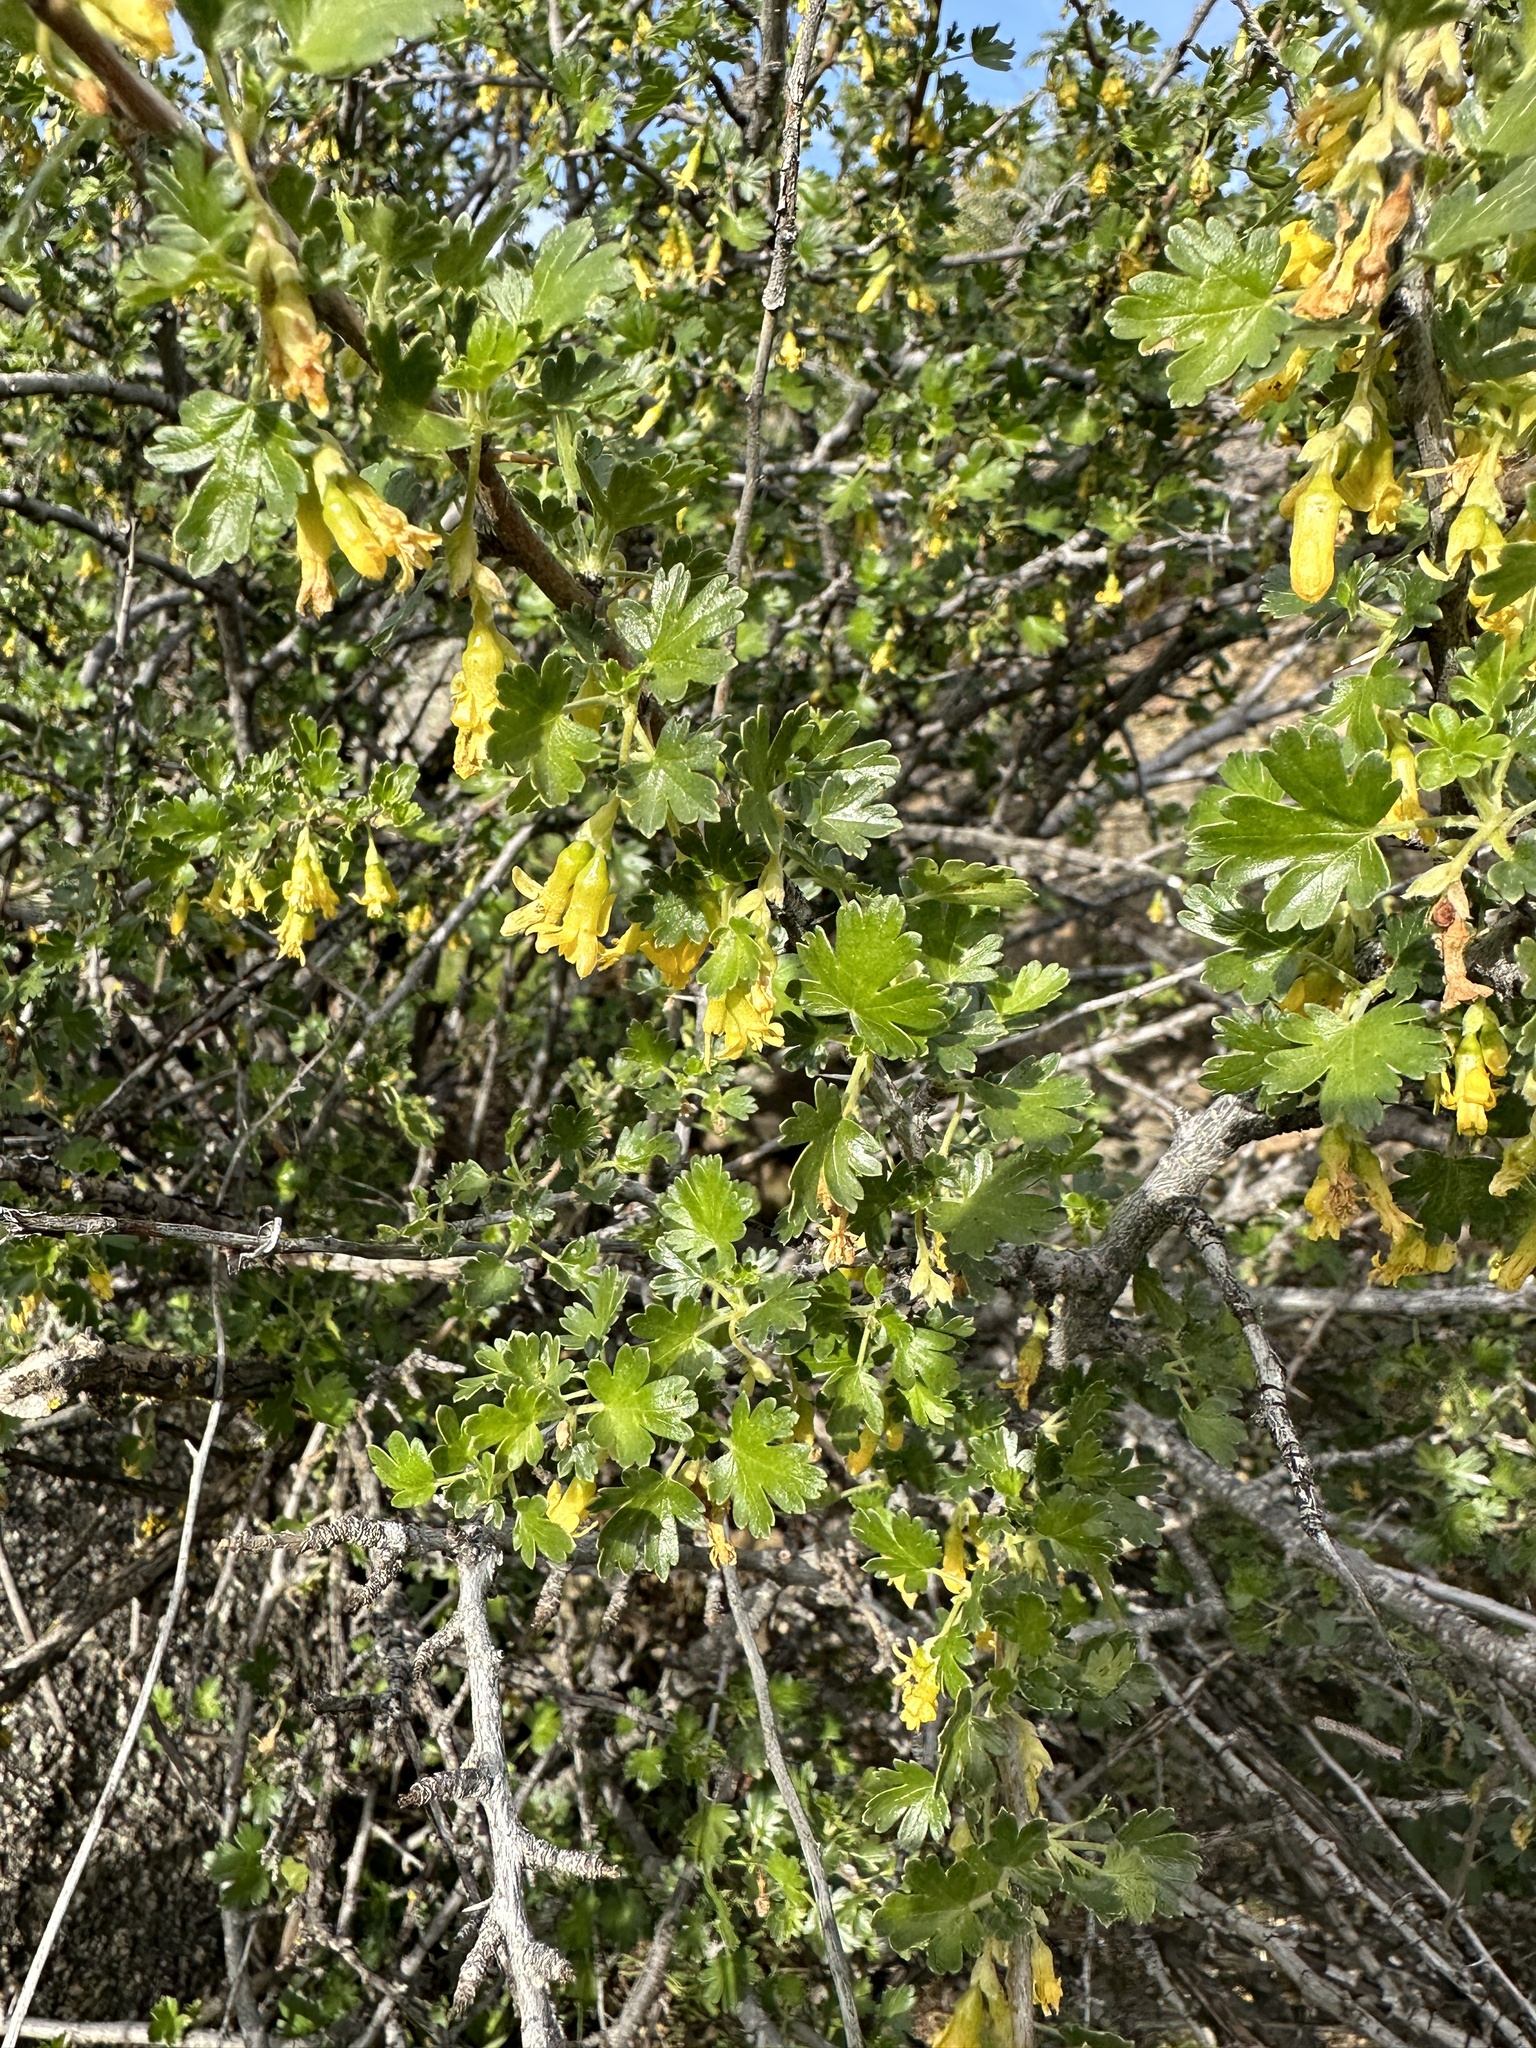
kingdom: Plantae
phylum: Tracheophyta
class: Magnoliopsida
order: Saxifragales
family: Grossulariaceae
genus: Ribes
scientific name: Ribes quercetorum
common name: Oak gooseberry
